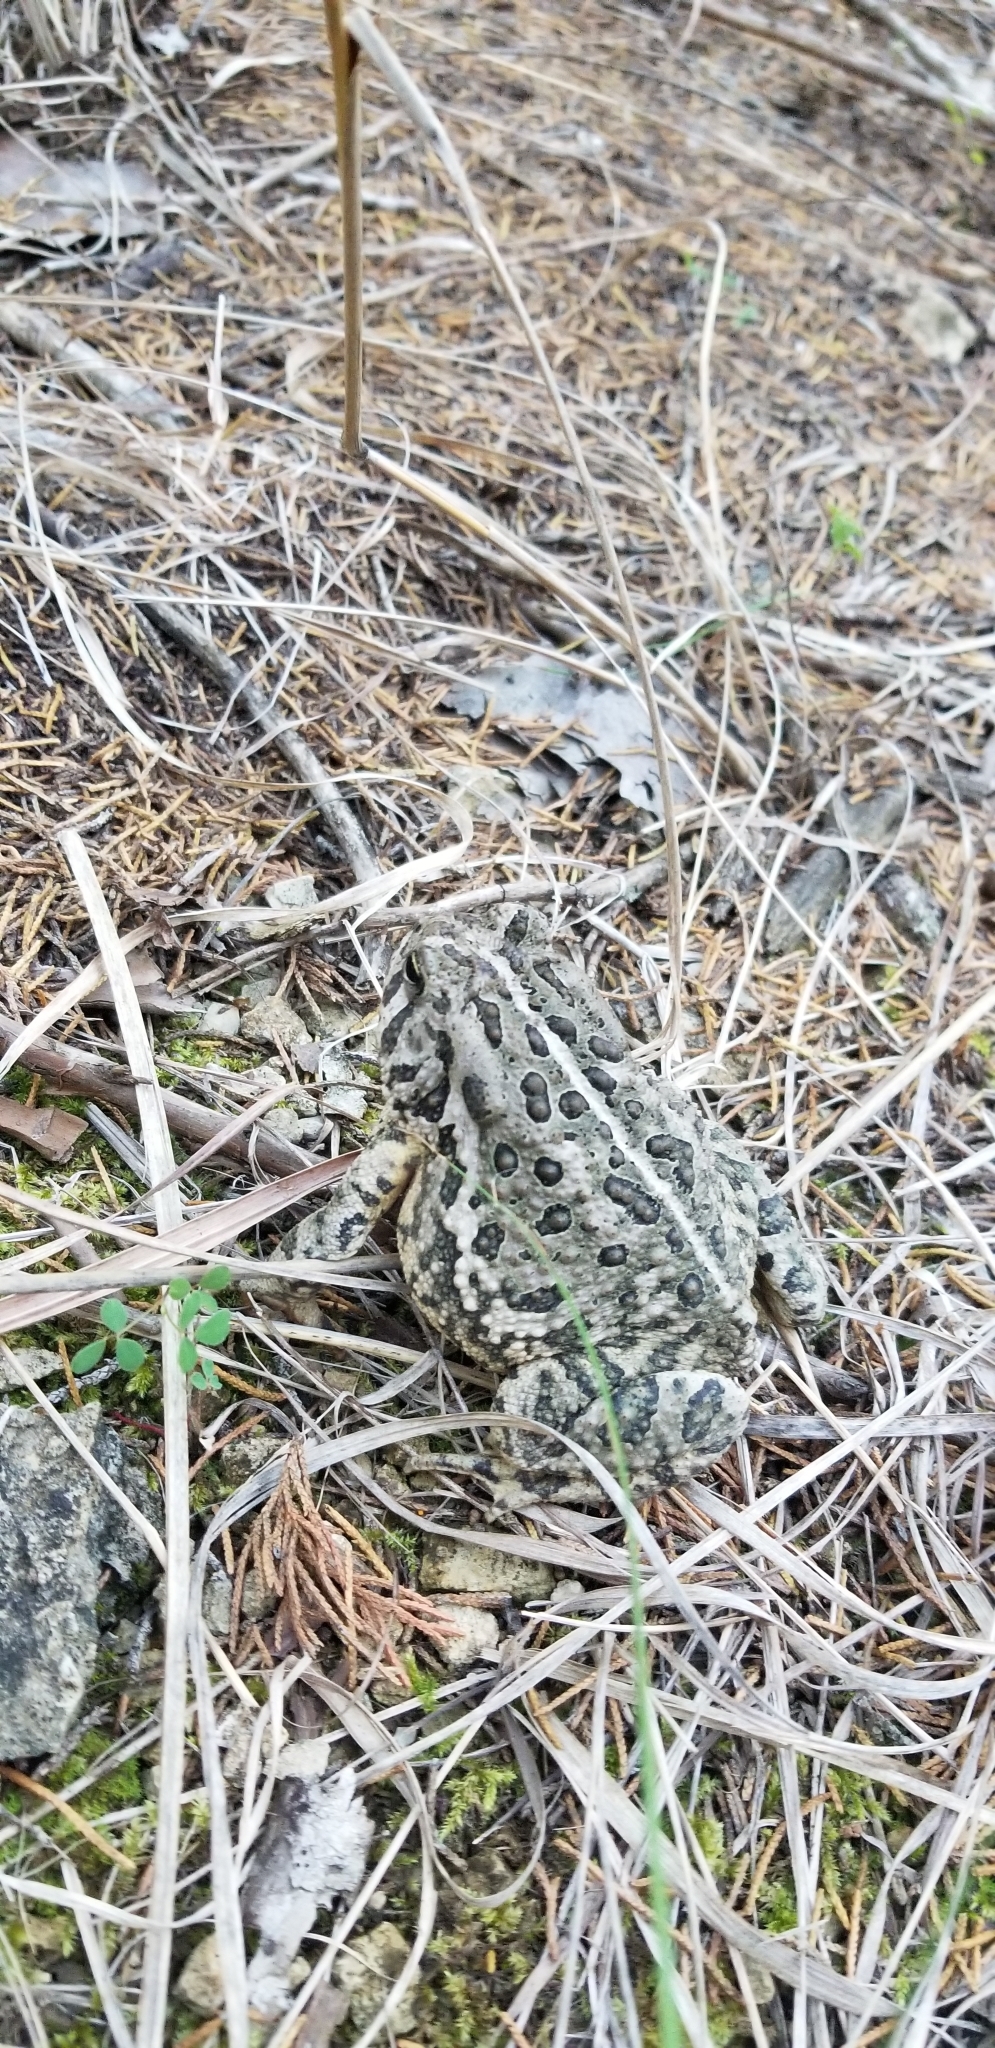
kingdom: Animalia
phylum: Chordata
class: Amphibia
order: Anura
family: Bufonidae
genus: Anaxyrus
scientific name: Anaxyrus woodhousii
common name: Woodhouse's toad
